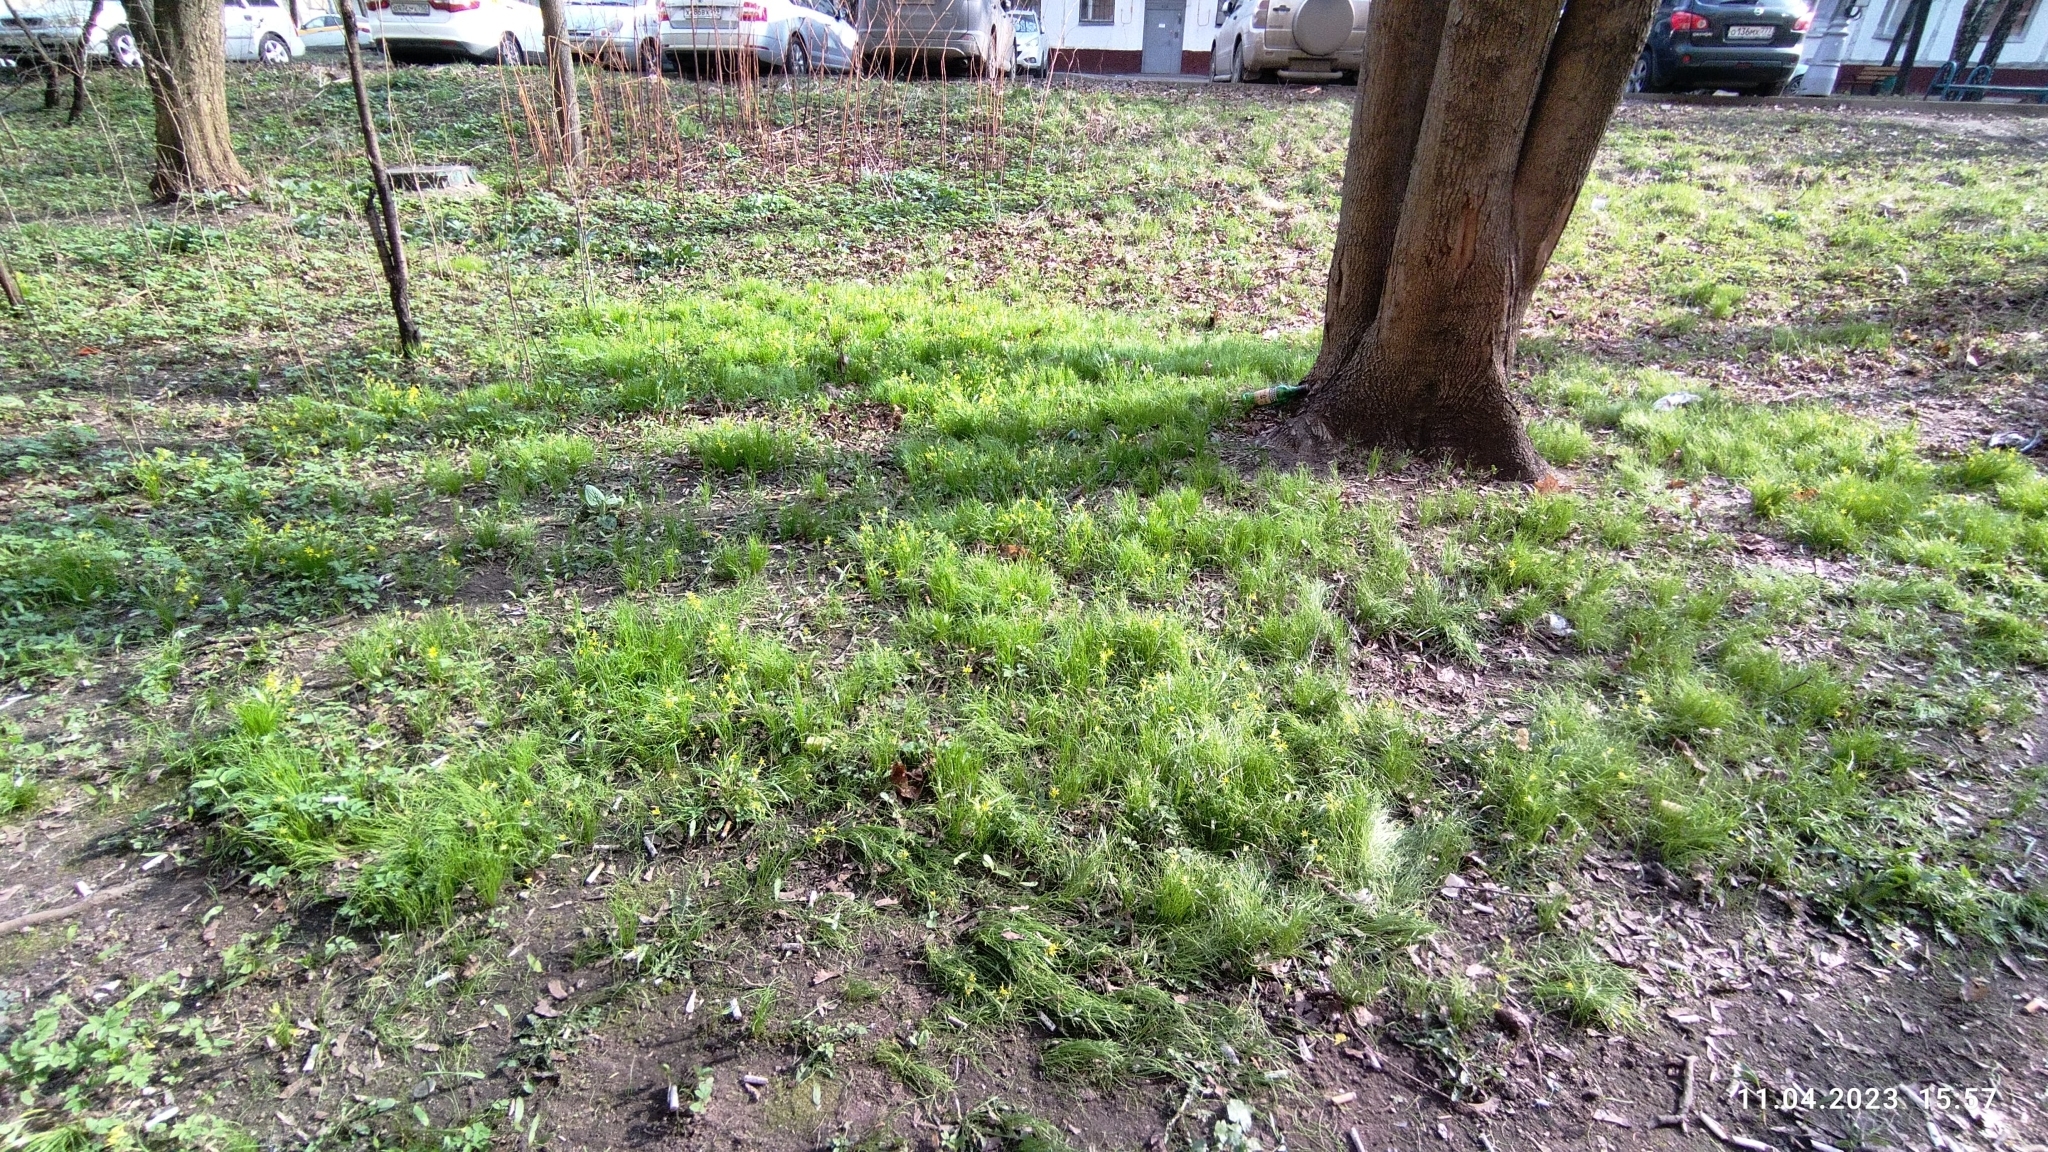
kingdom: Plantae
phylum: Tracheophyta
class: Liliopsida
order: Liliales
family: Liliaceae
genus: Gagea
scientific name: Gagea minima
